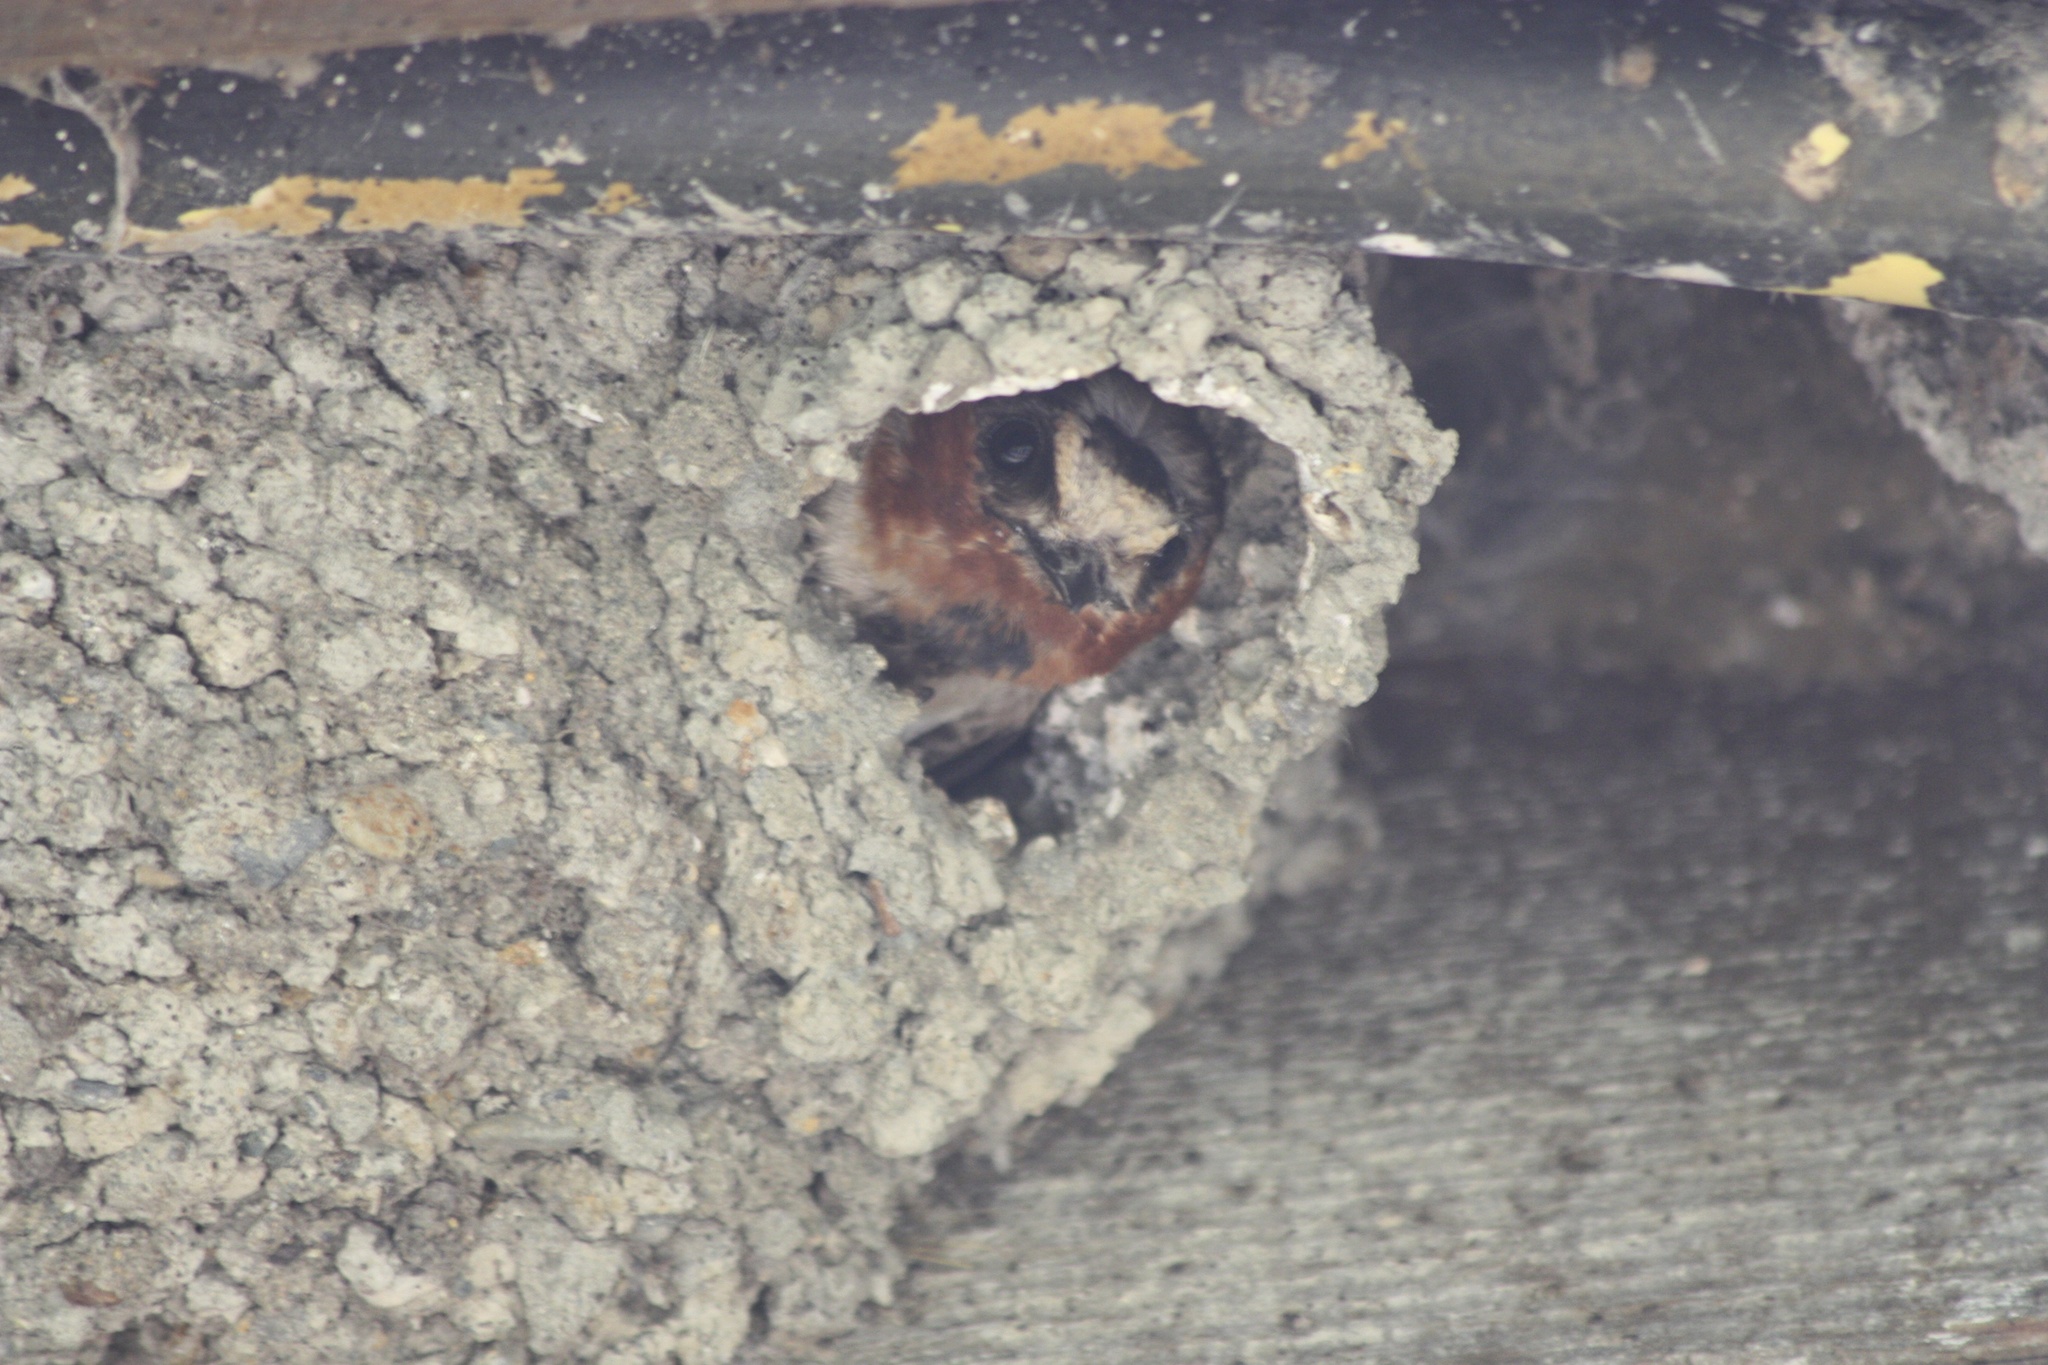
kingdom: Animalia
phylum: Chordata
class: Aves
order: Passeriformes
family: Hirundinidae
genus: Petrochelidon
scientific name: Petrochelidon pyrrhonota
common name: American cliff swallow
